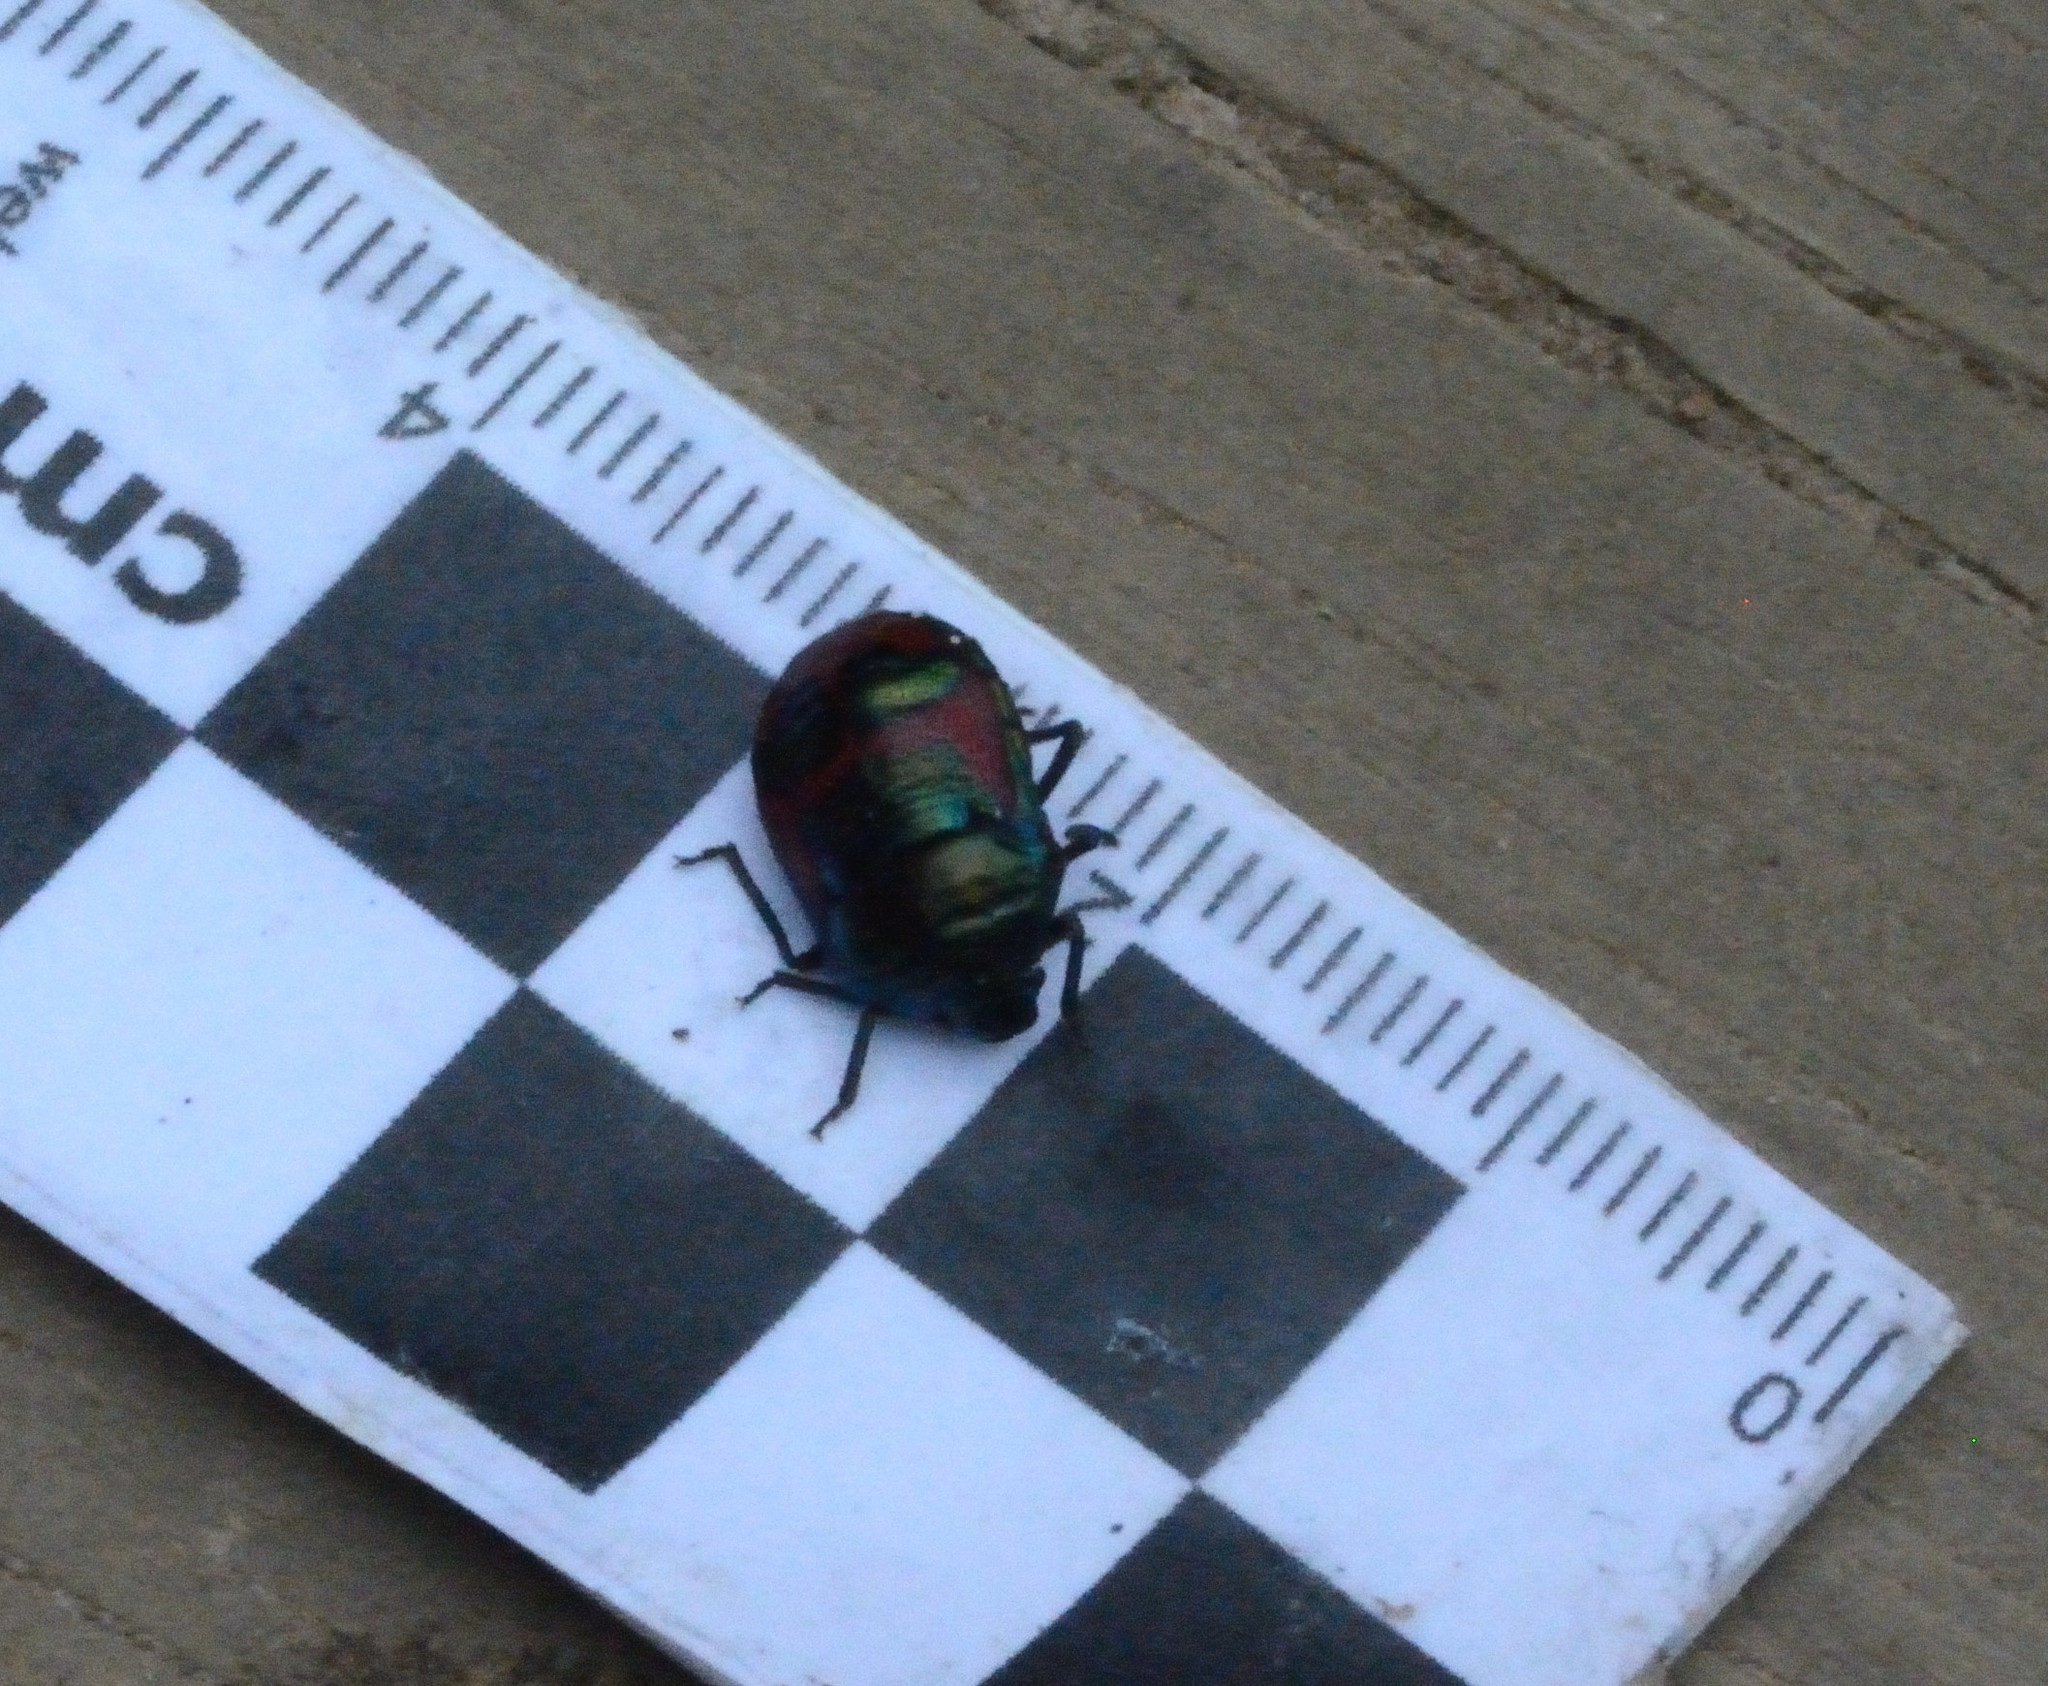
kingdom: Animalia
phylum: Arthropoda
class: Insecta
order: Hemiptera
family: Scutelleridae
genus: Choerocoris
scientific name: Choerocoris paganus
